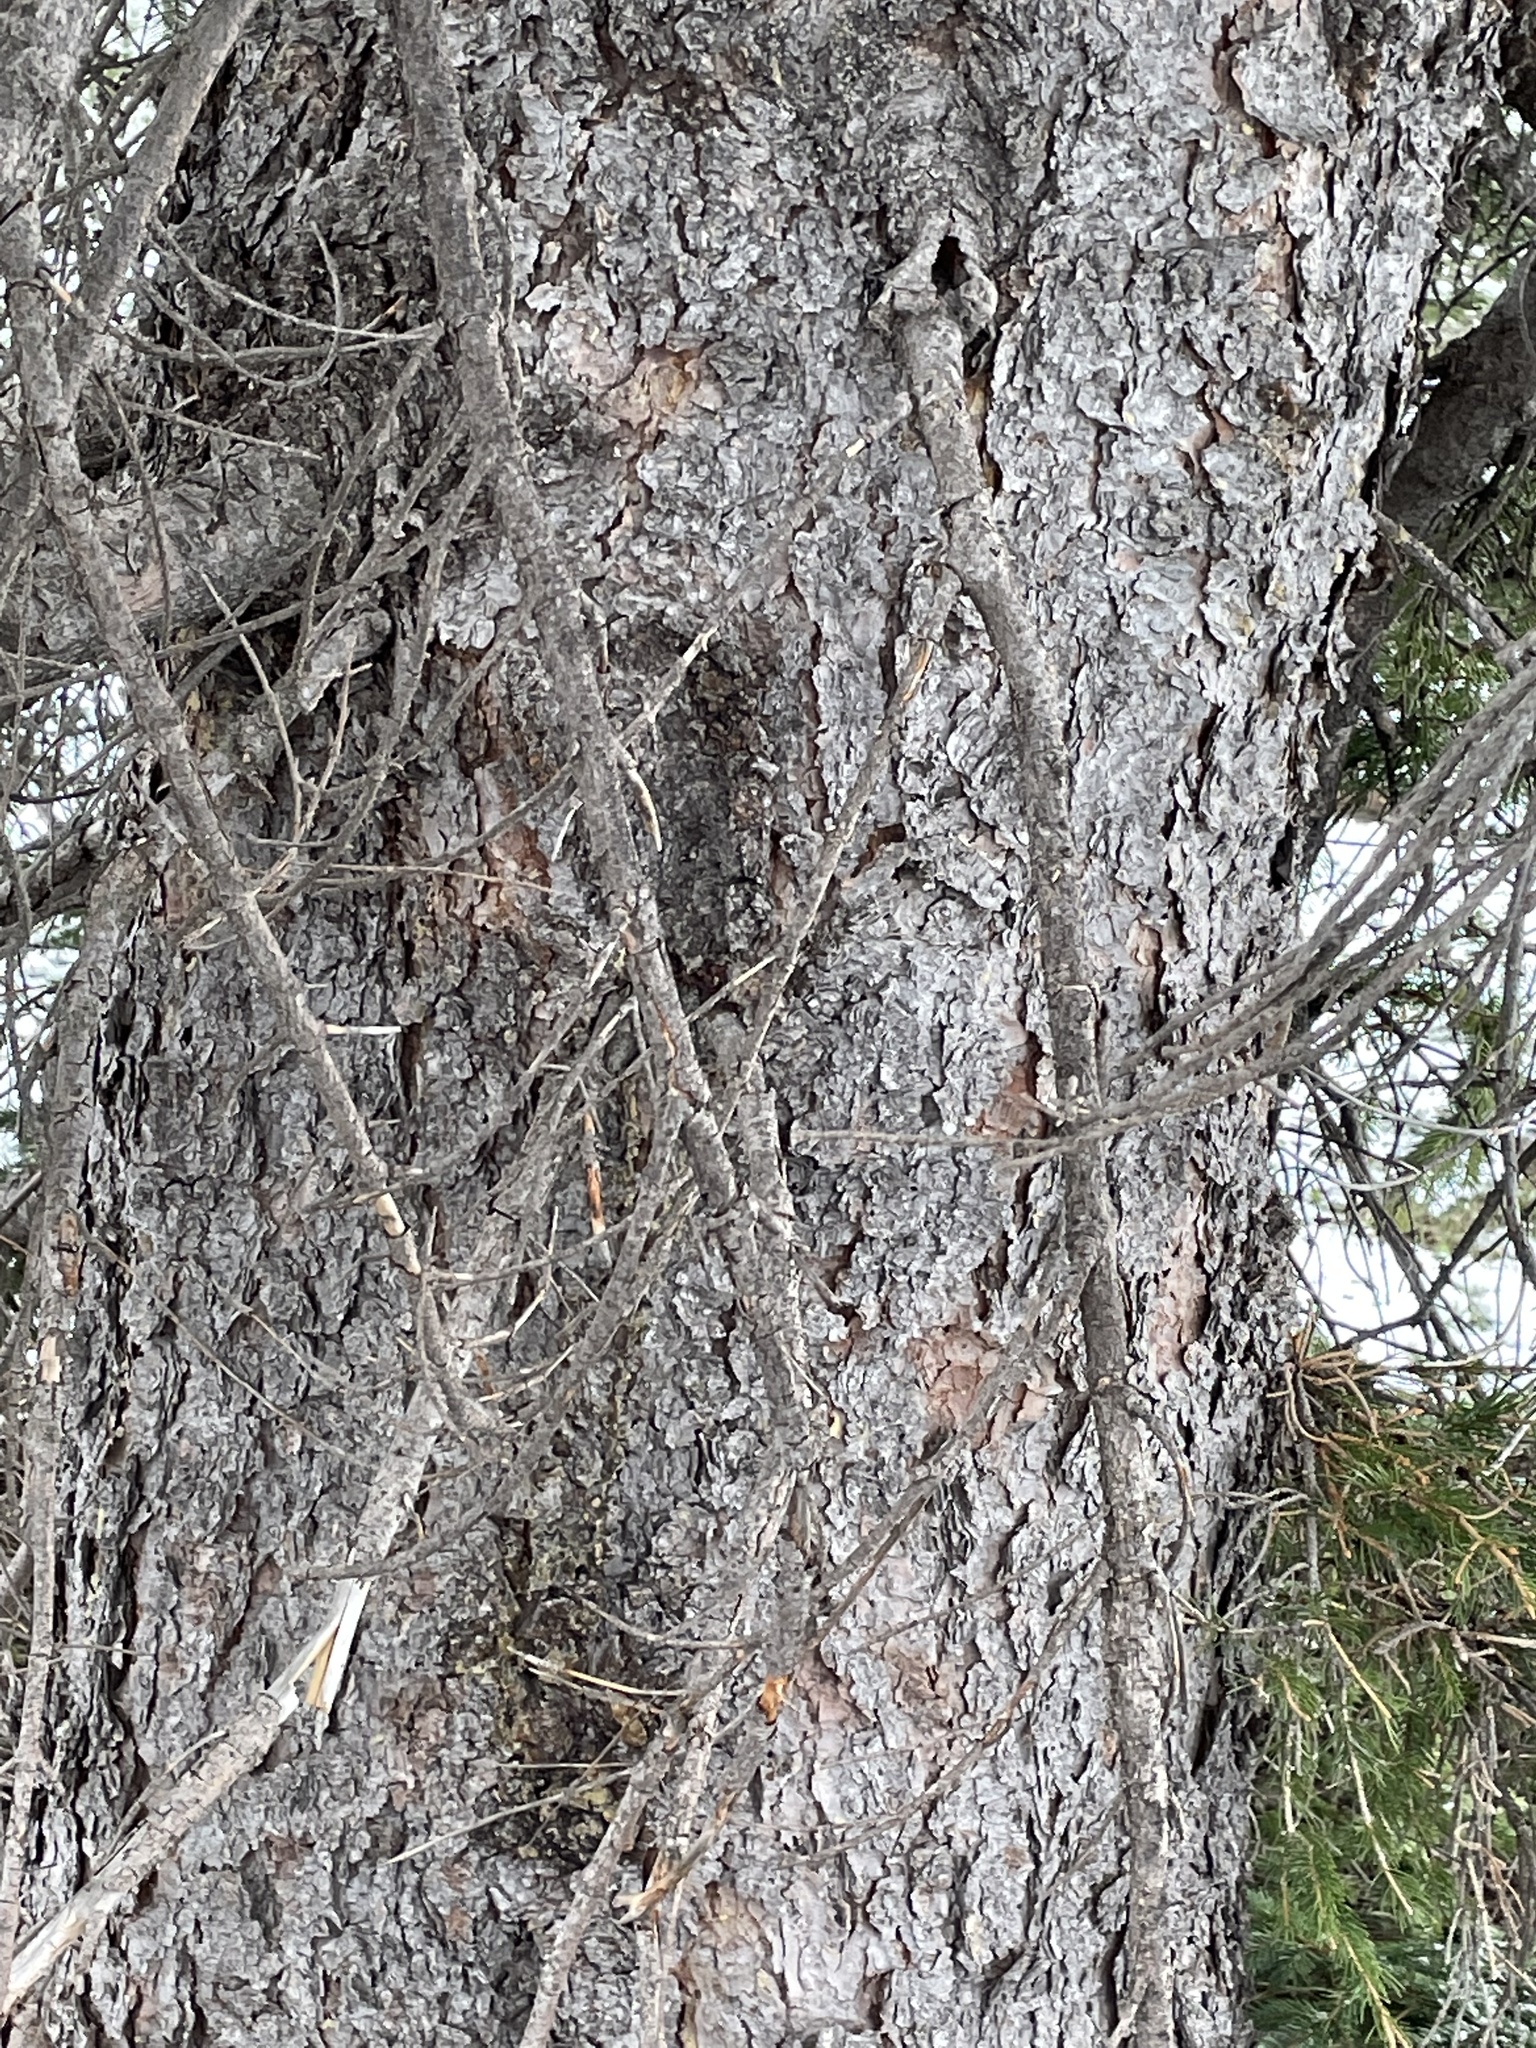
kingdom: Plantae
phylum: Tracheophyta
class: Pinopsida
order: Pinales
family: Pinaceae
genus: Pinus
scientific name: Pinus ponderosa
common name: Western yellow-pine
